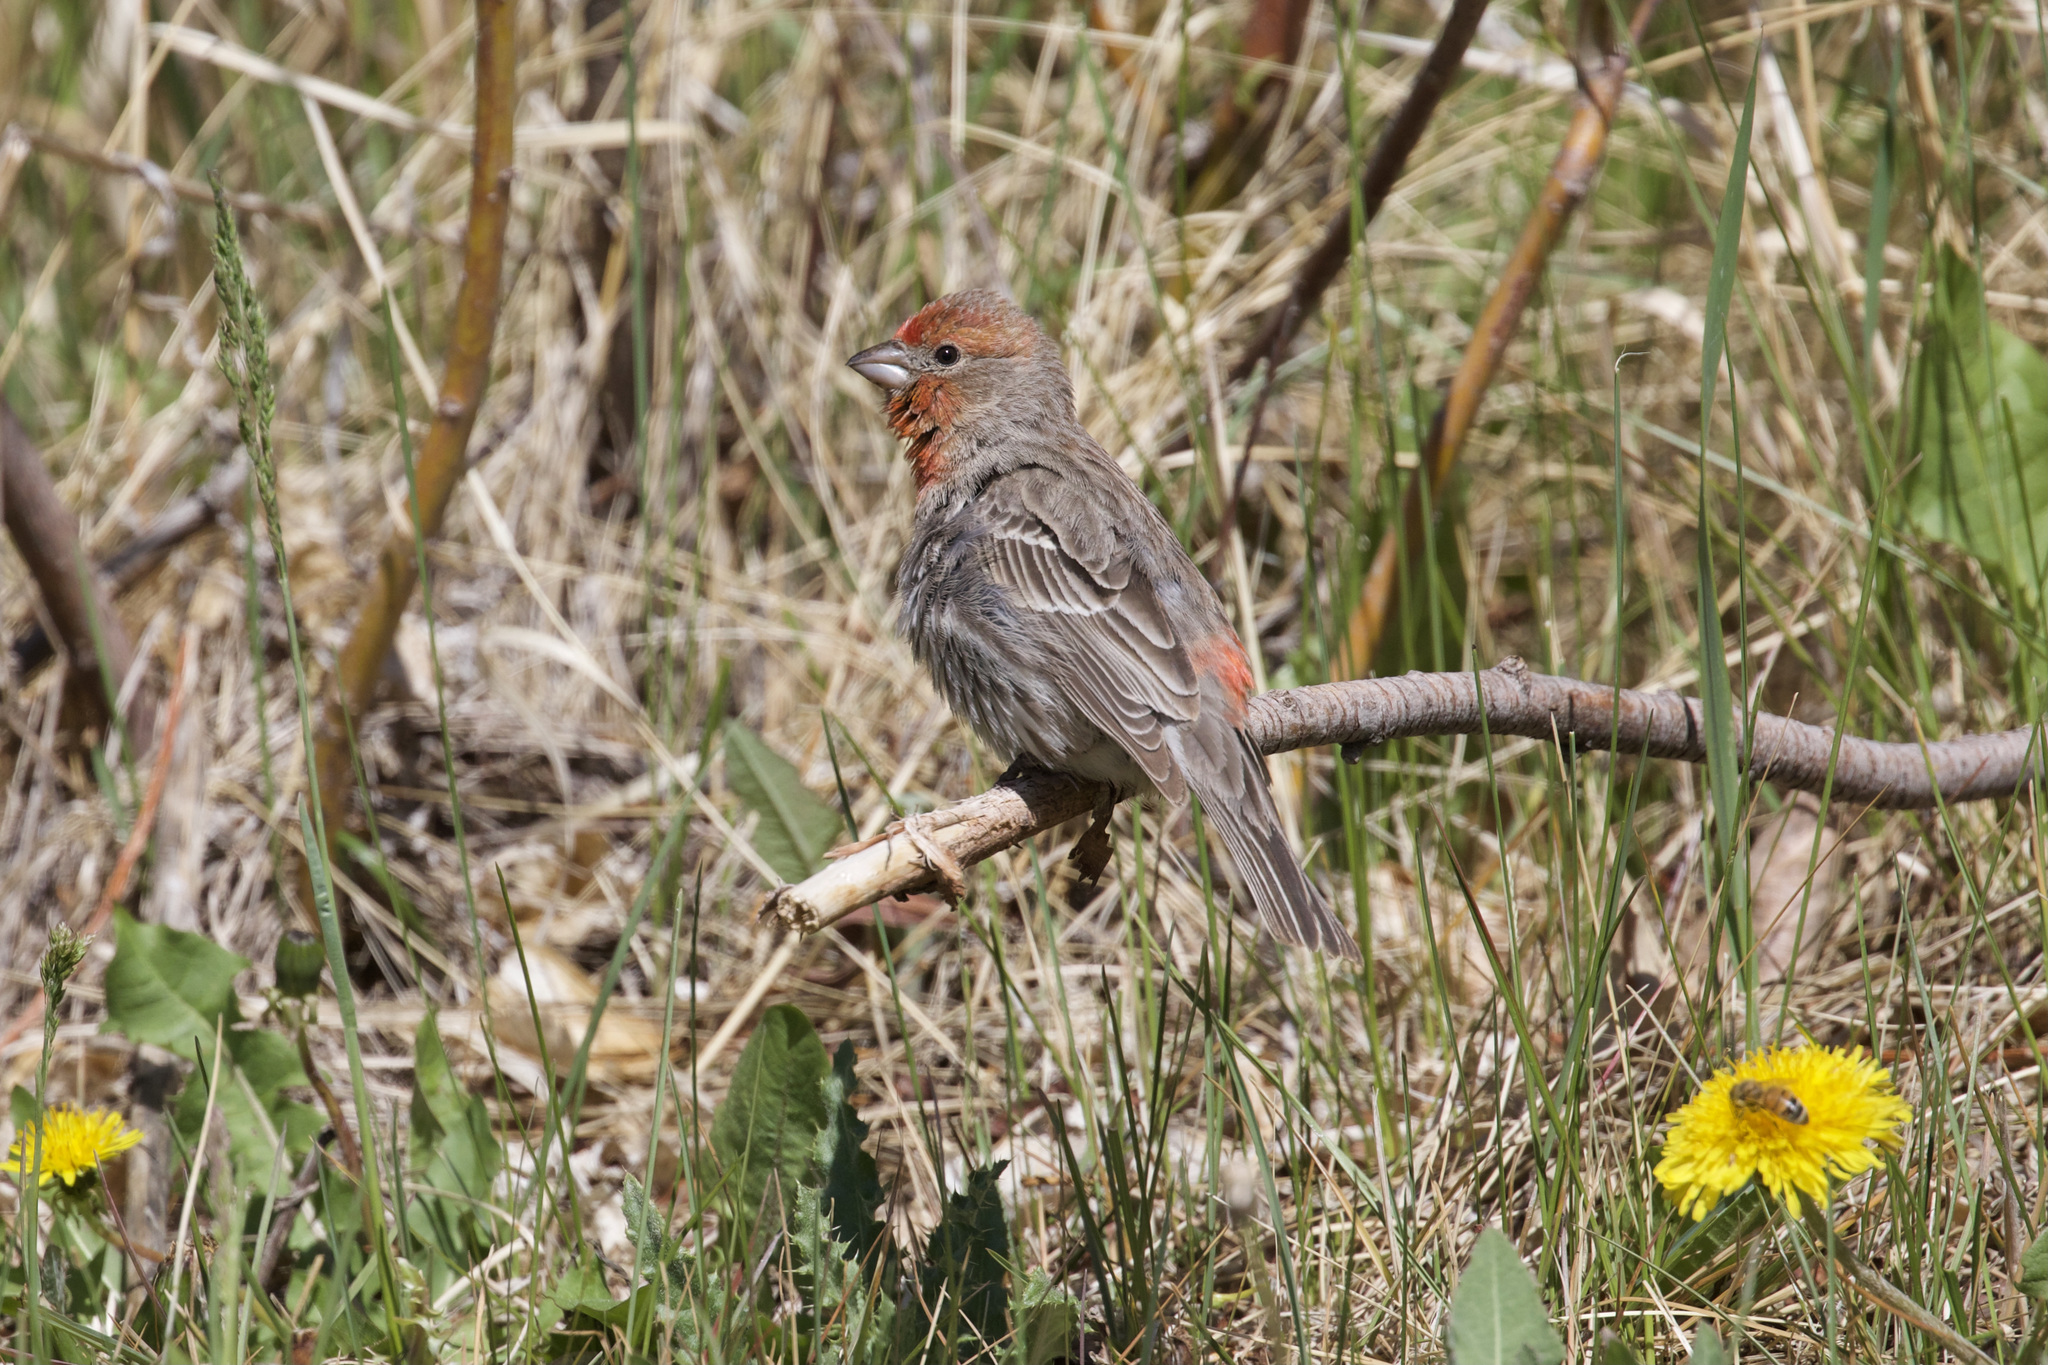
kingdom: Animalia
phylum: Chordata
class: Aves
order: Passeriformes
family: Fringillidae
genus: Haemorhous
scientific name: Haemorhous mexicanus
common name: House finch
